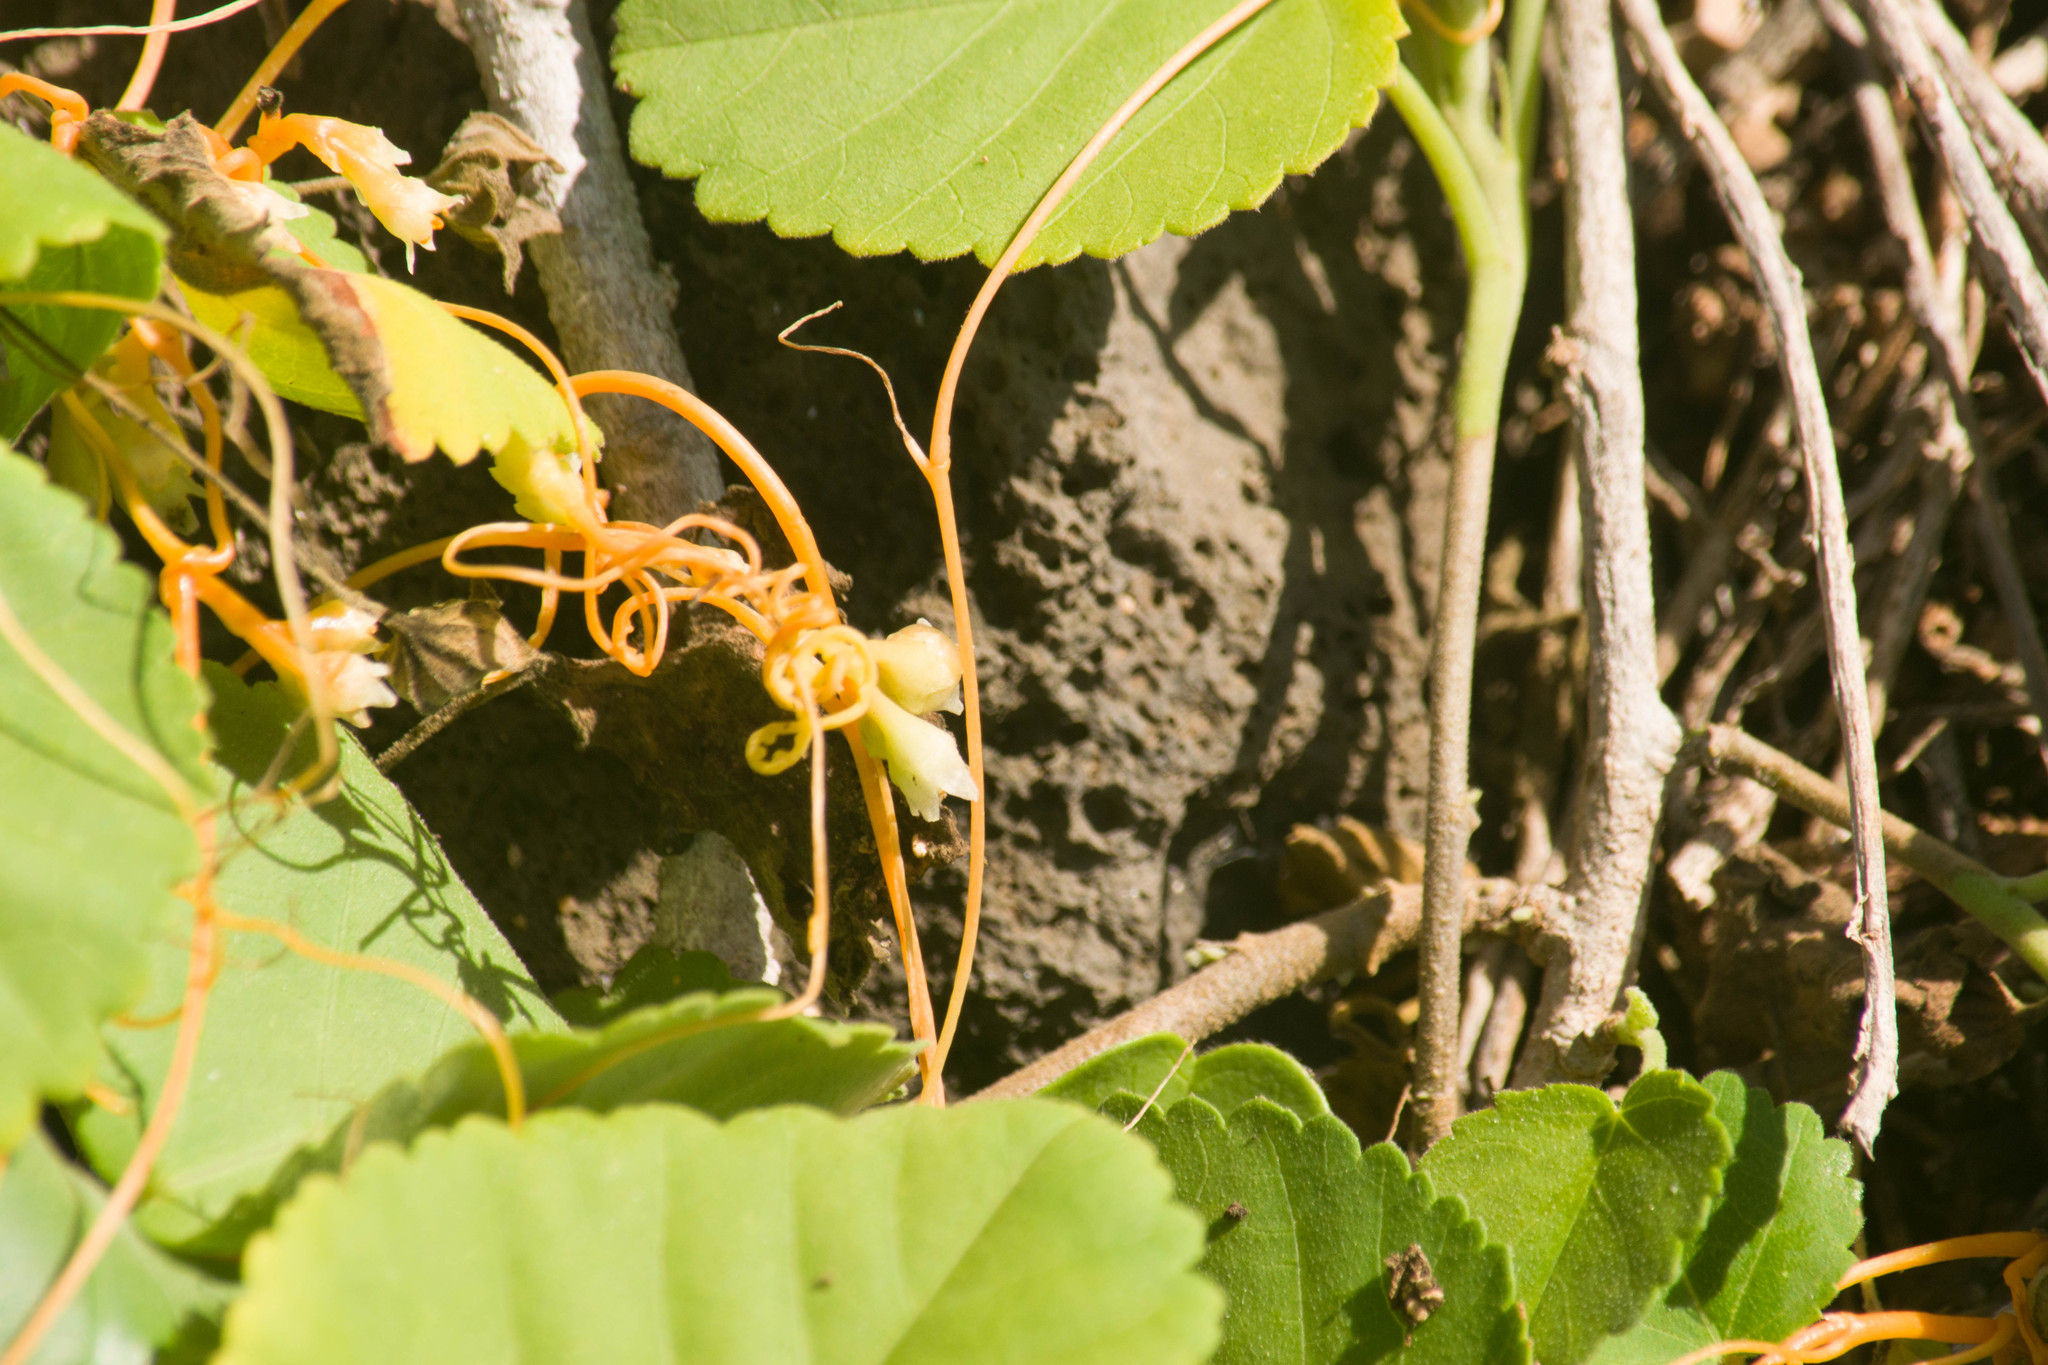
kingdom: Plantae
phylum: Tracheophyta
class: Magnoliopsida
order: Solanales
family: Convolvulaceae
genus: Cuscuta
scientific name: Cuscuta sandwichiana
